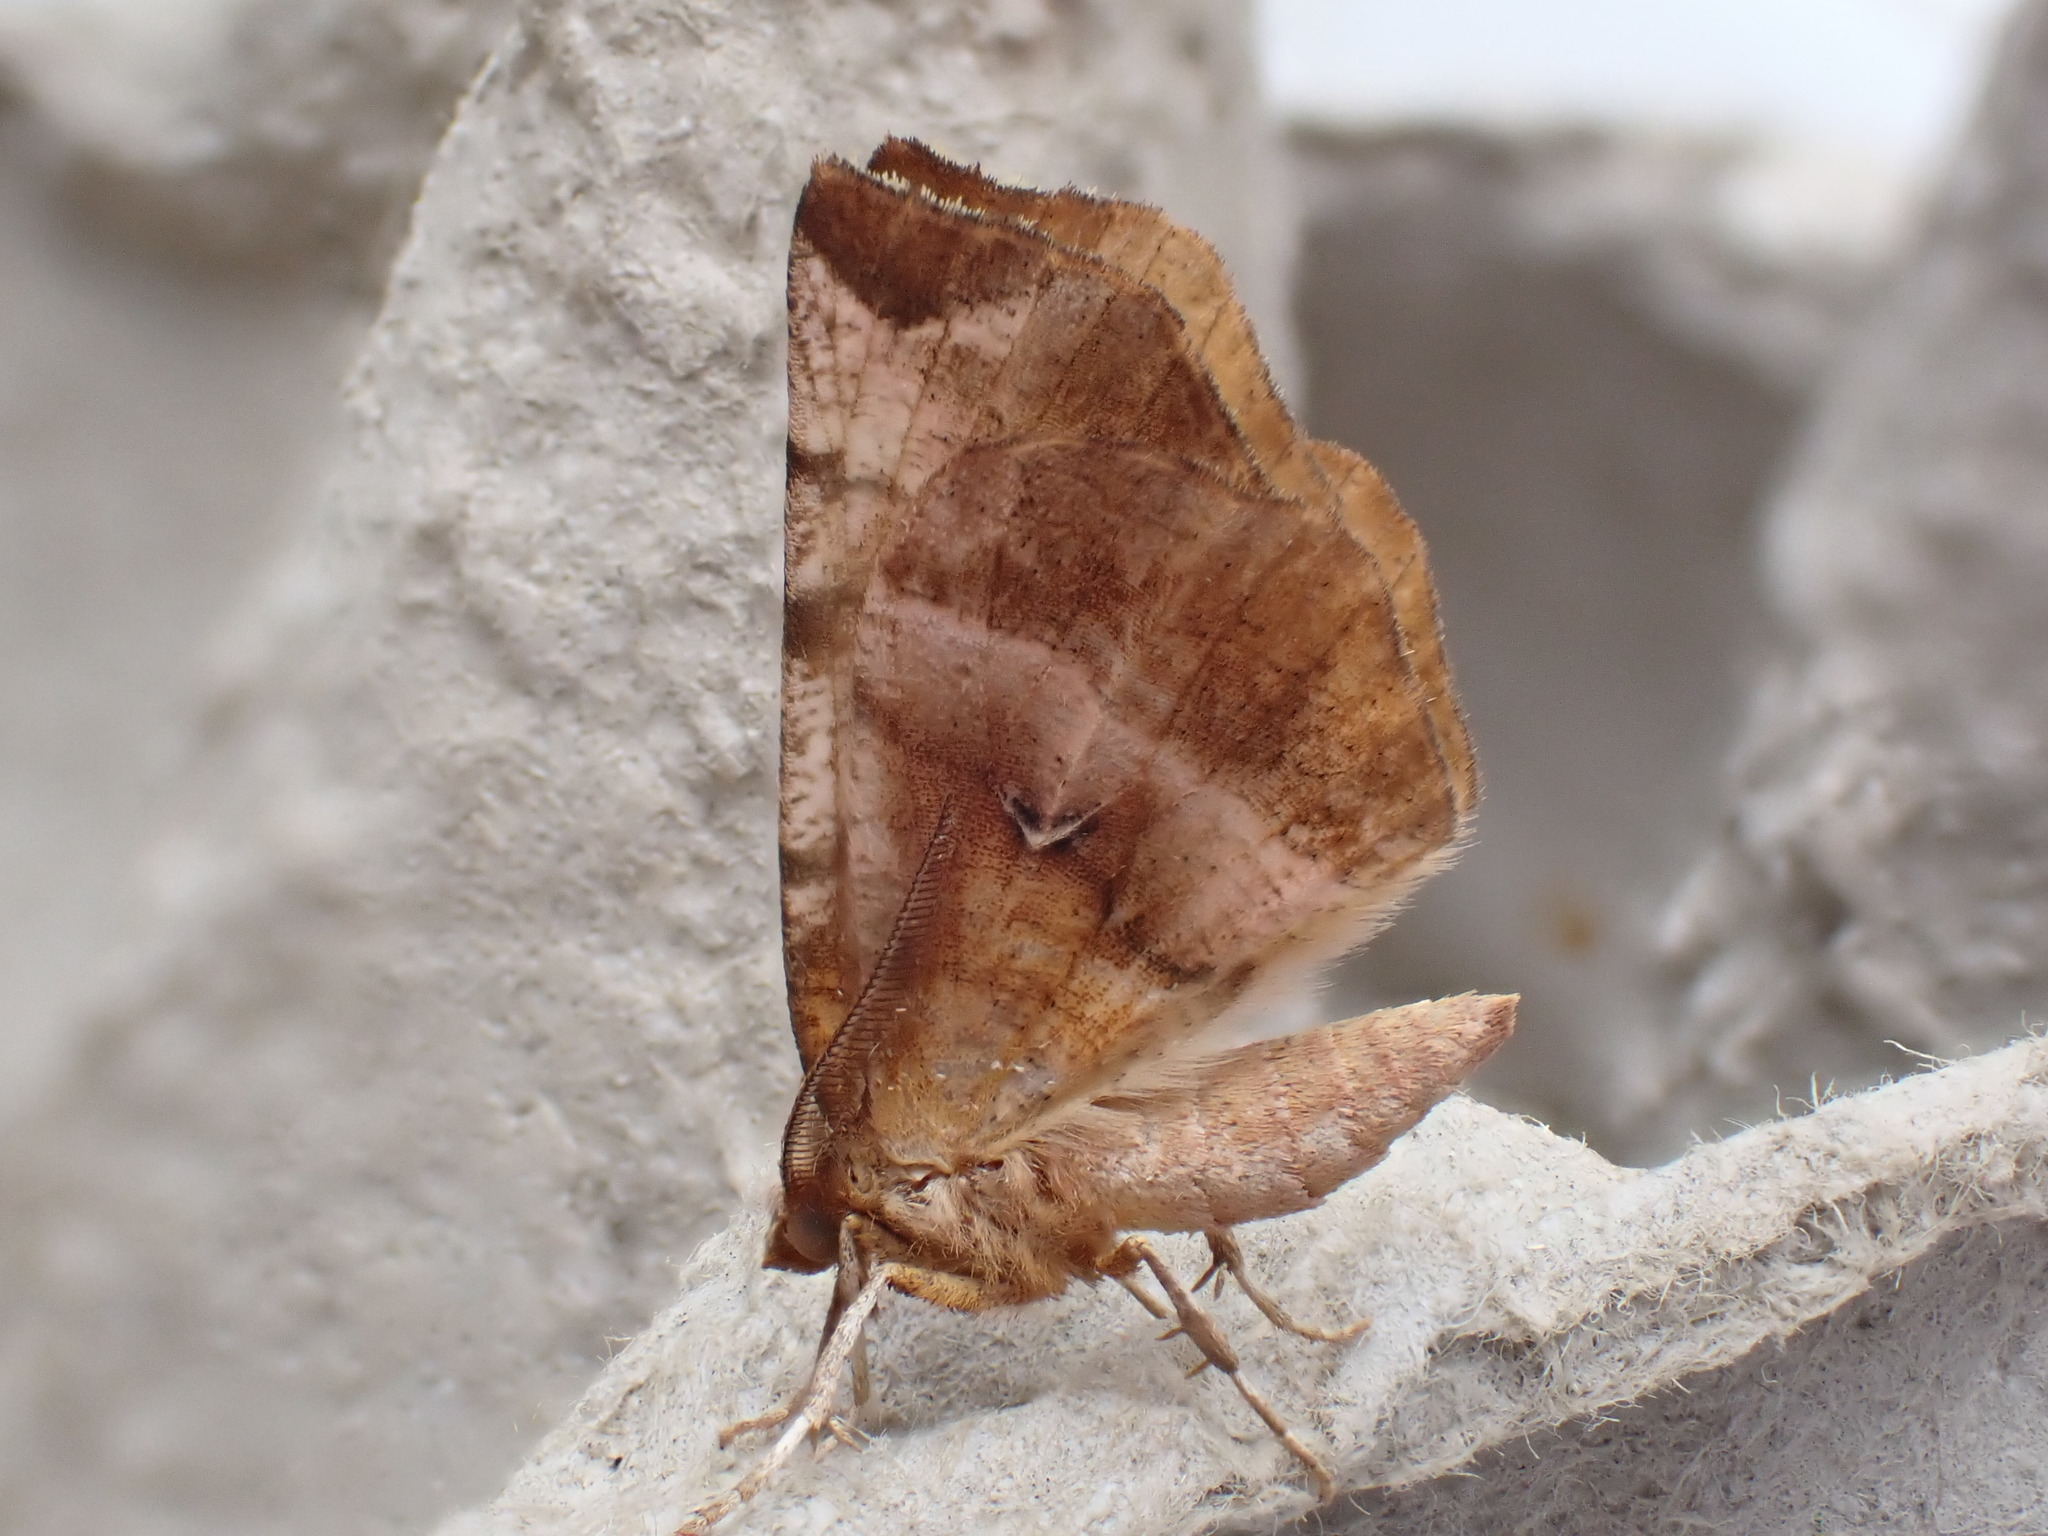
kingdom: Animalia
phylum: Arthropoda
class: Insecta
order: Lepidoptera
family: Geometridae
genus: Selenia
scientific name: Selenia dentaria
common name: Early thorn
